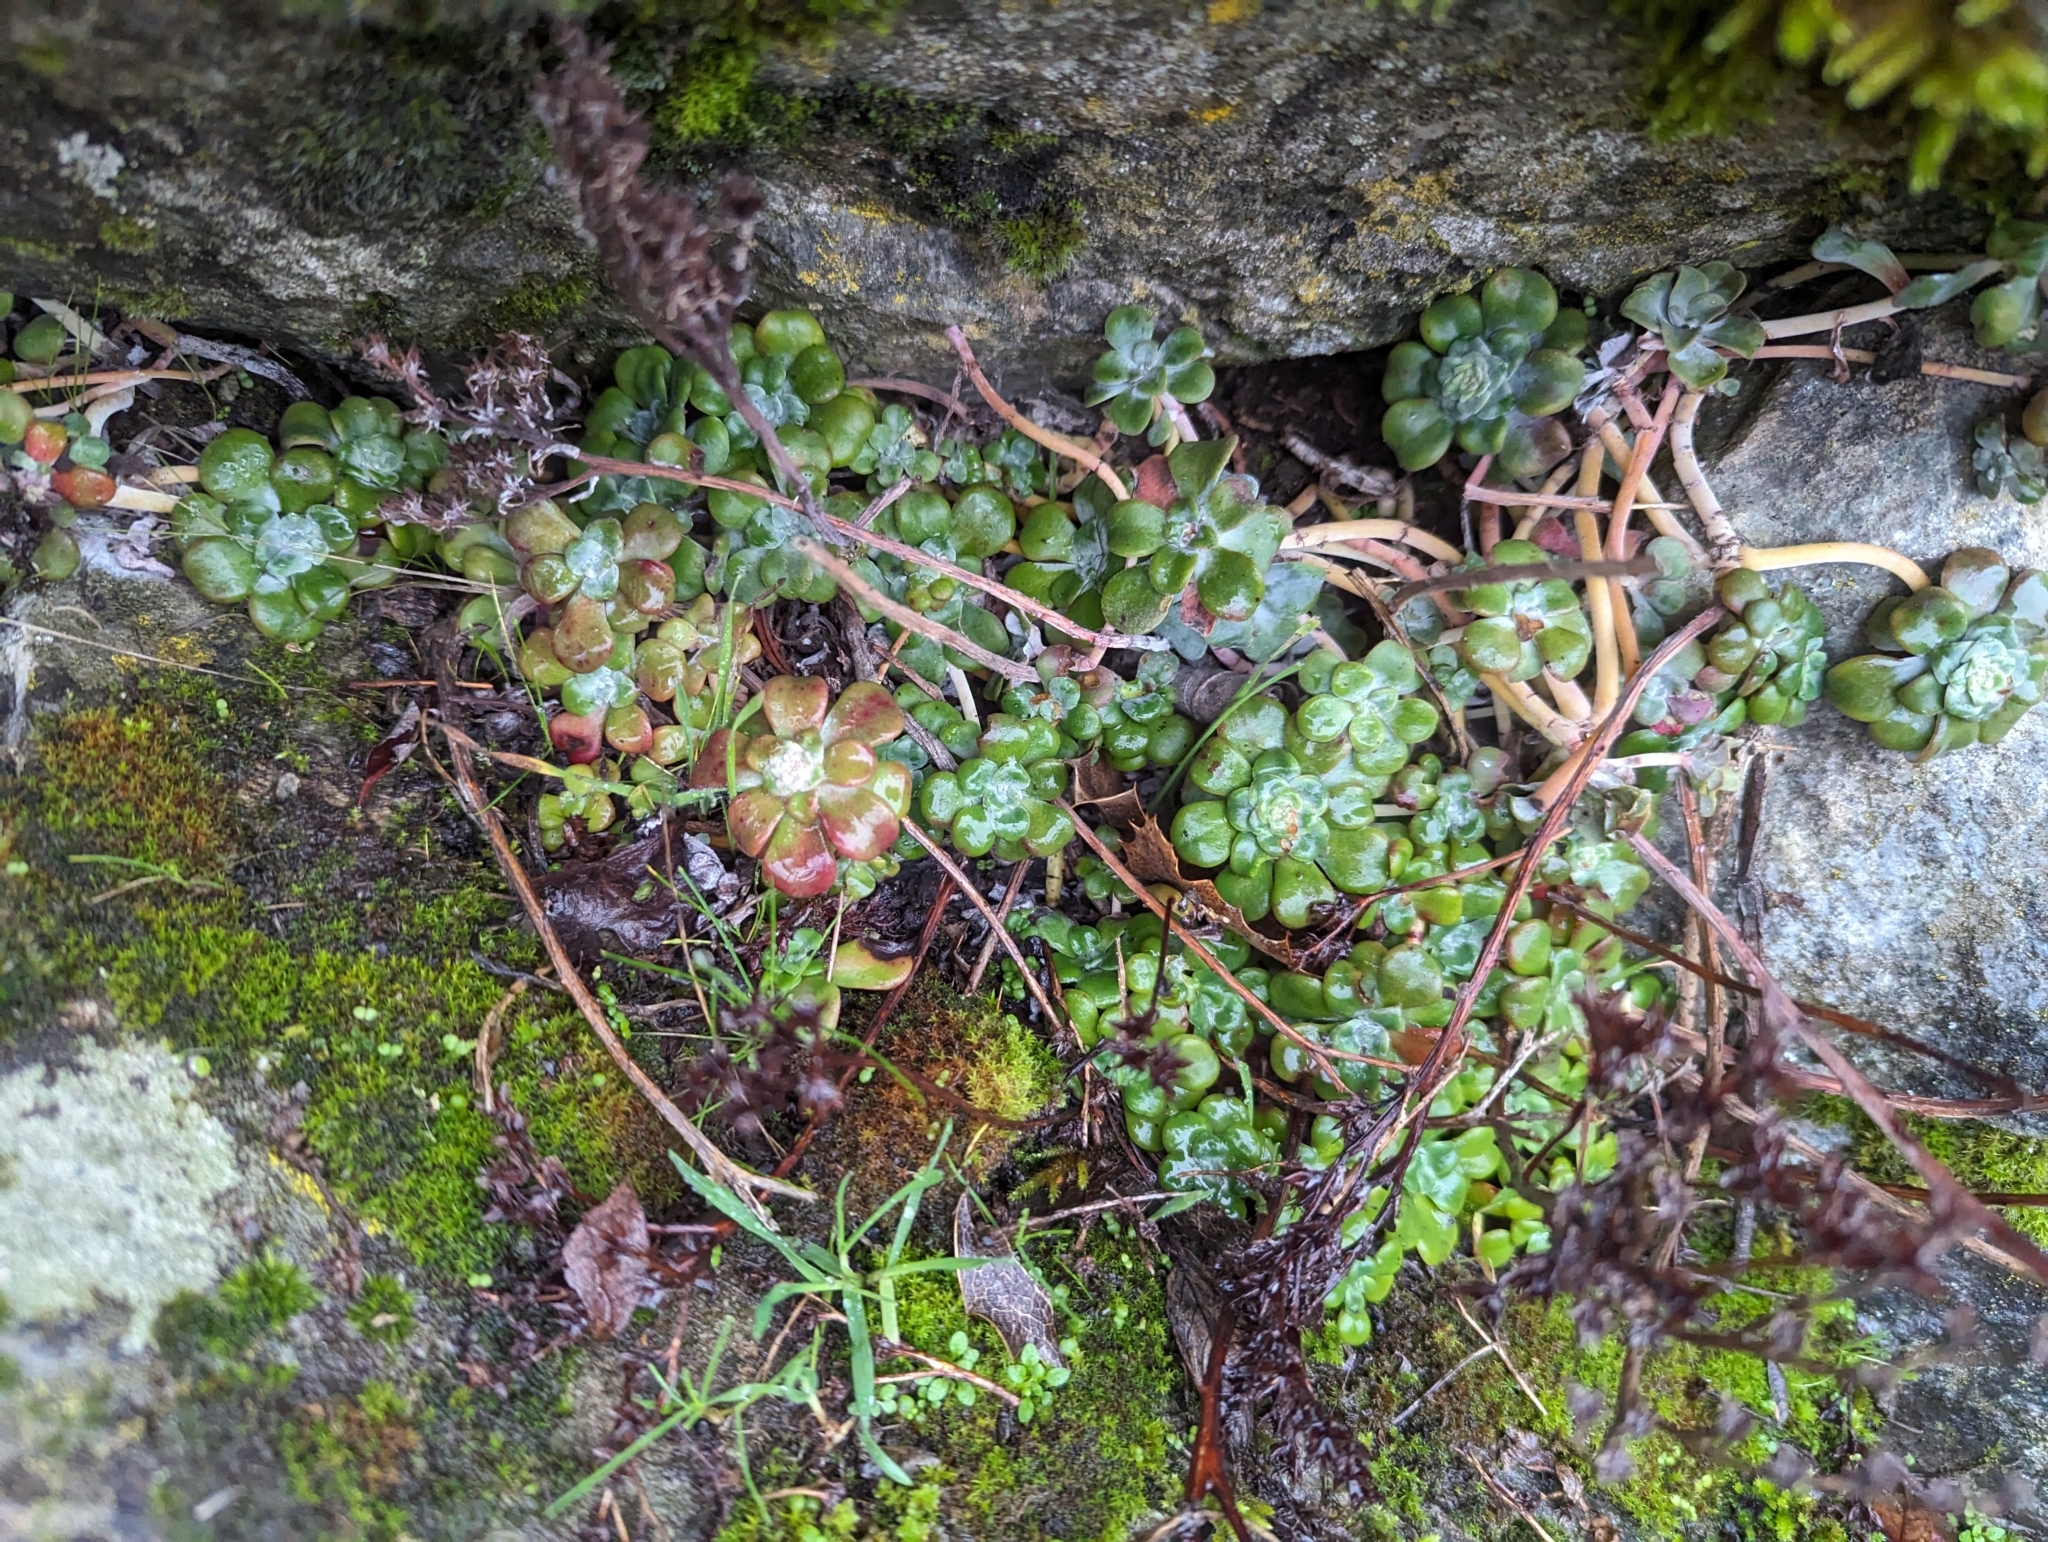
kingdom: Plantae
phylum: Tracheophyta
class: Magnoliopsida
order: Saxifragales
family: Crassulaceae
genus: Sedum
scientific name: Sedum spathulifolium
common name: Colorado stonecrop
